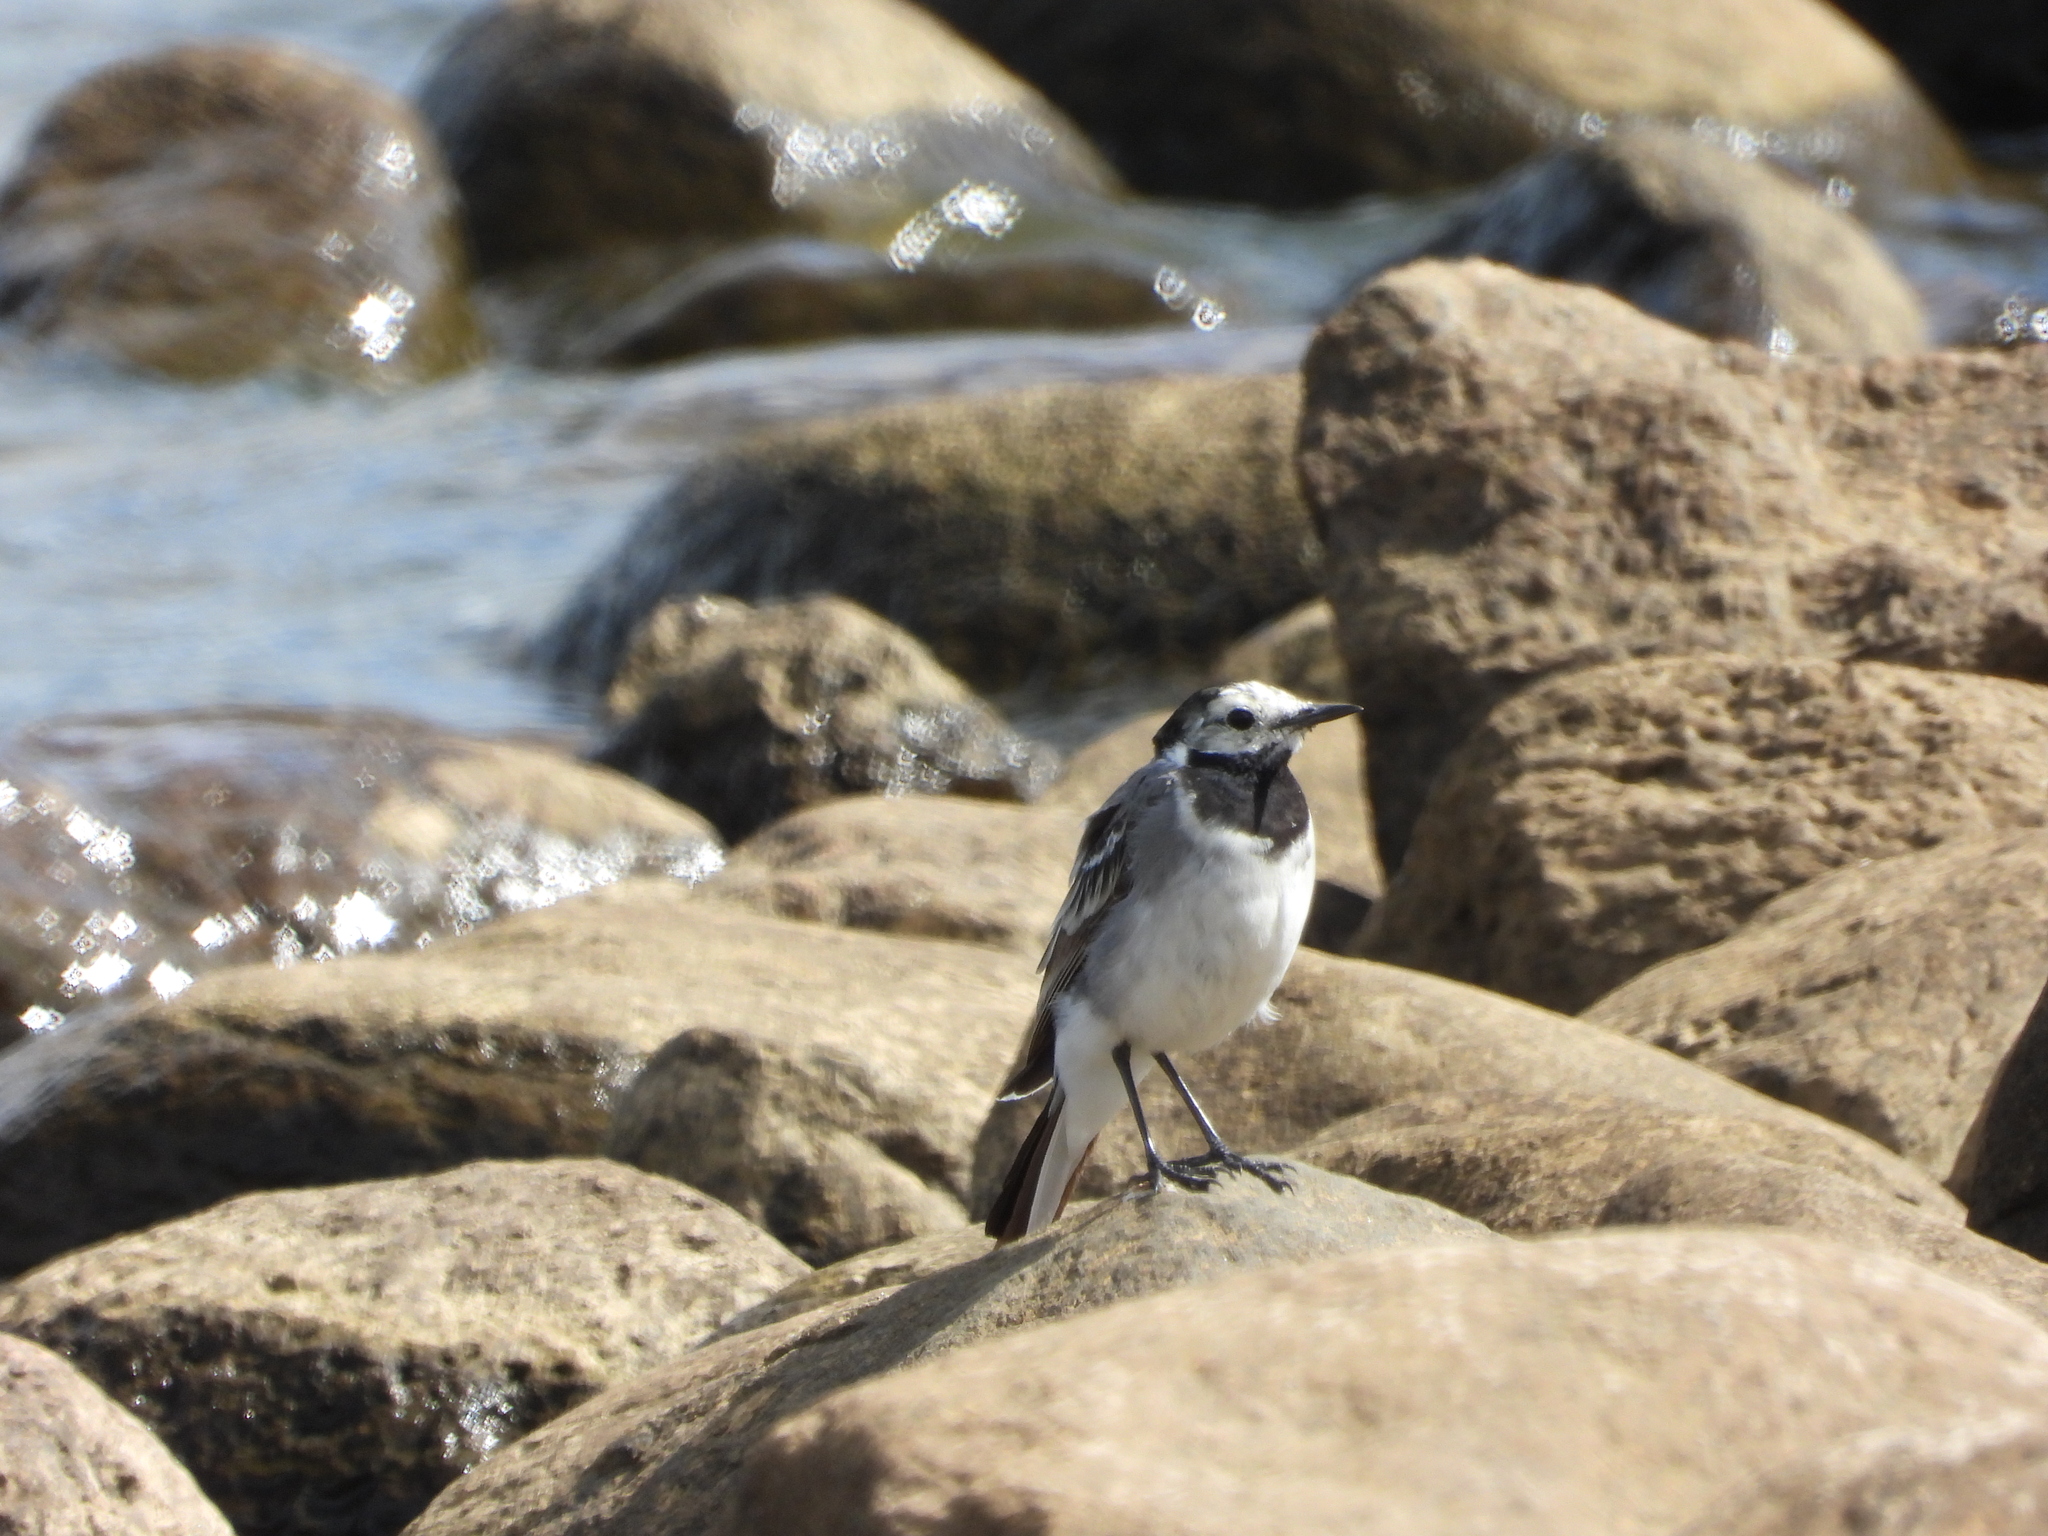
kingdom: Animalia
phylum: Chordata
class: Aves
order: Passeriformes
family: Motacillidae
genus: Motacilla
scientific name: Motacilla alba
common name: White wagtail
